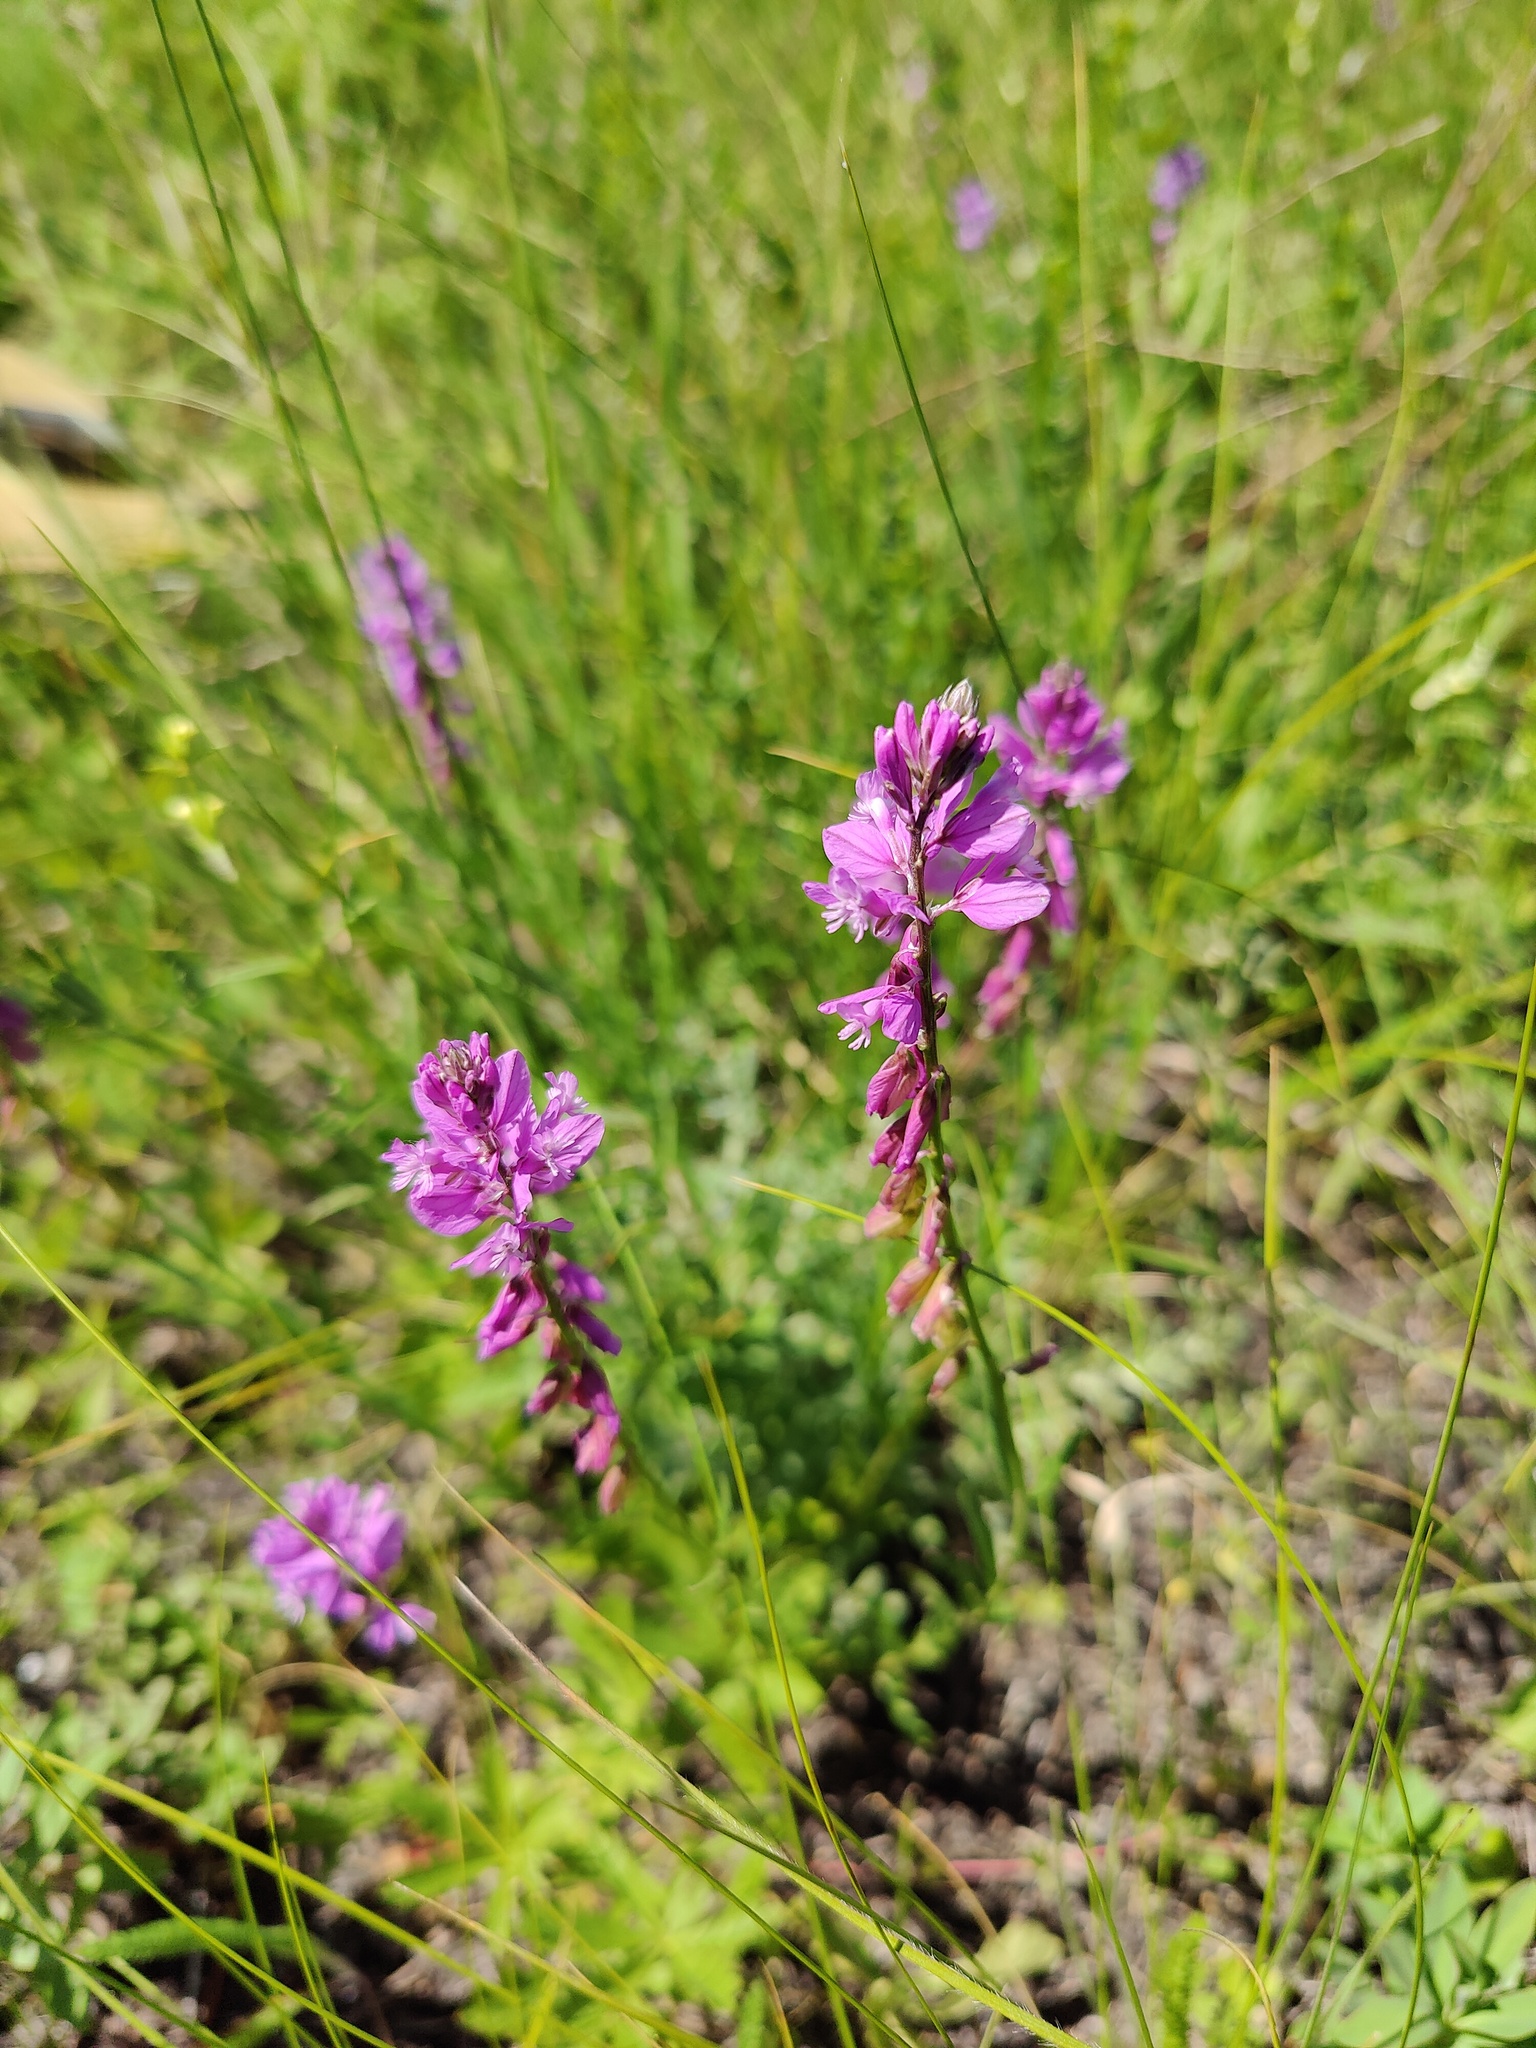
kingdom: Plantae
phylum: Tracheophyta
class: Magnoliopsida
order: Fabales
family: Polygalaceae
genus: Polygala
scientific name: Polygala nicaeensis
